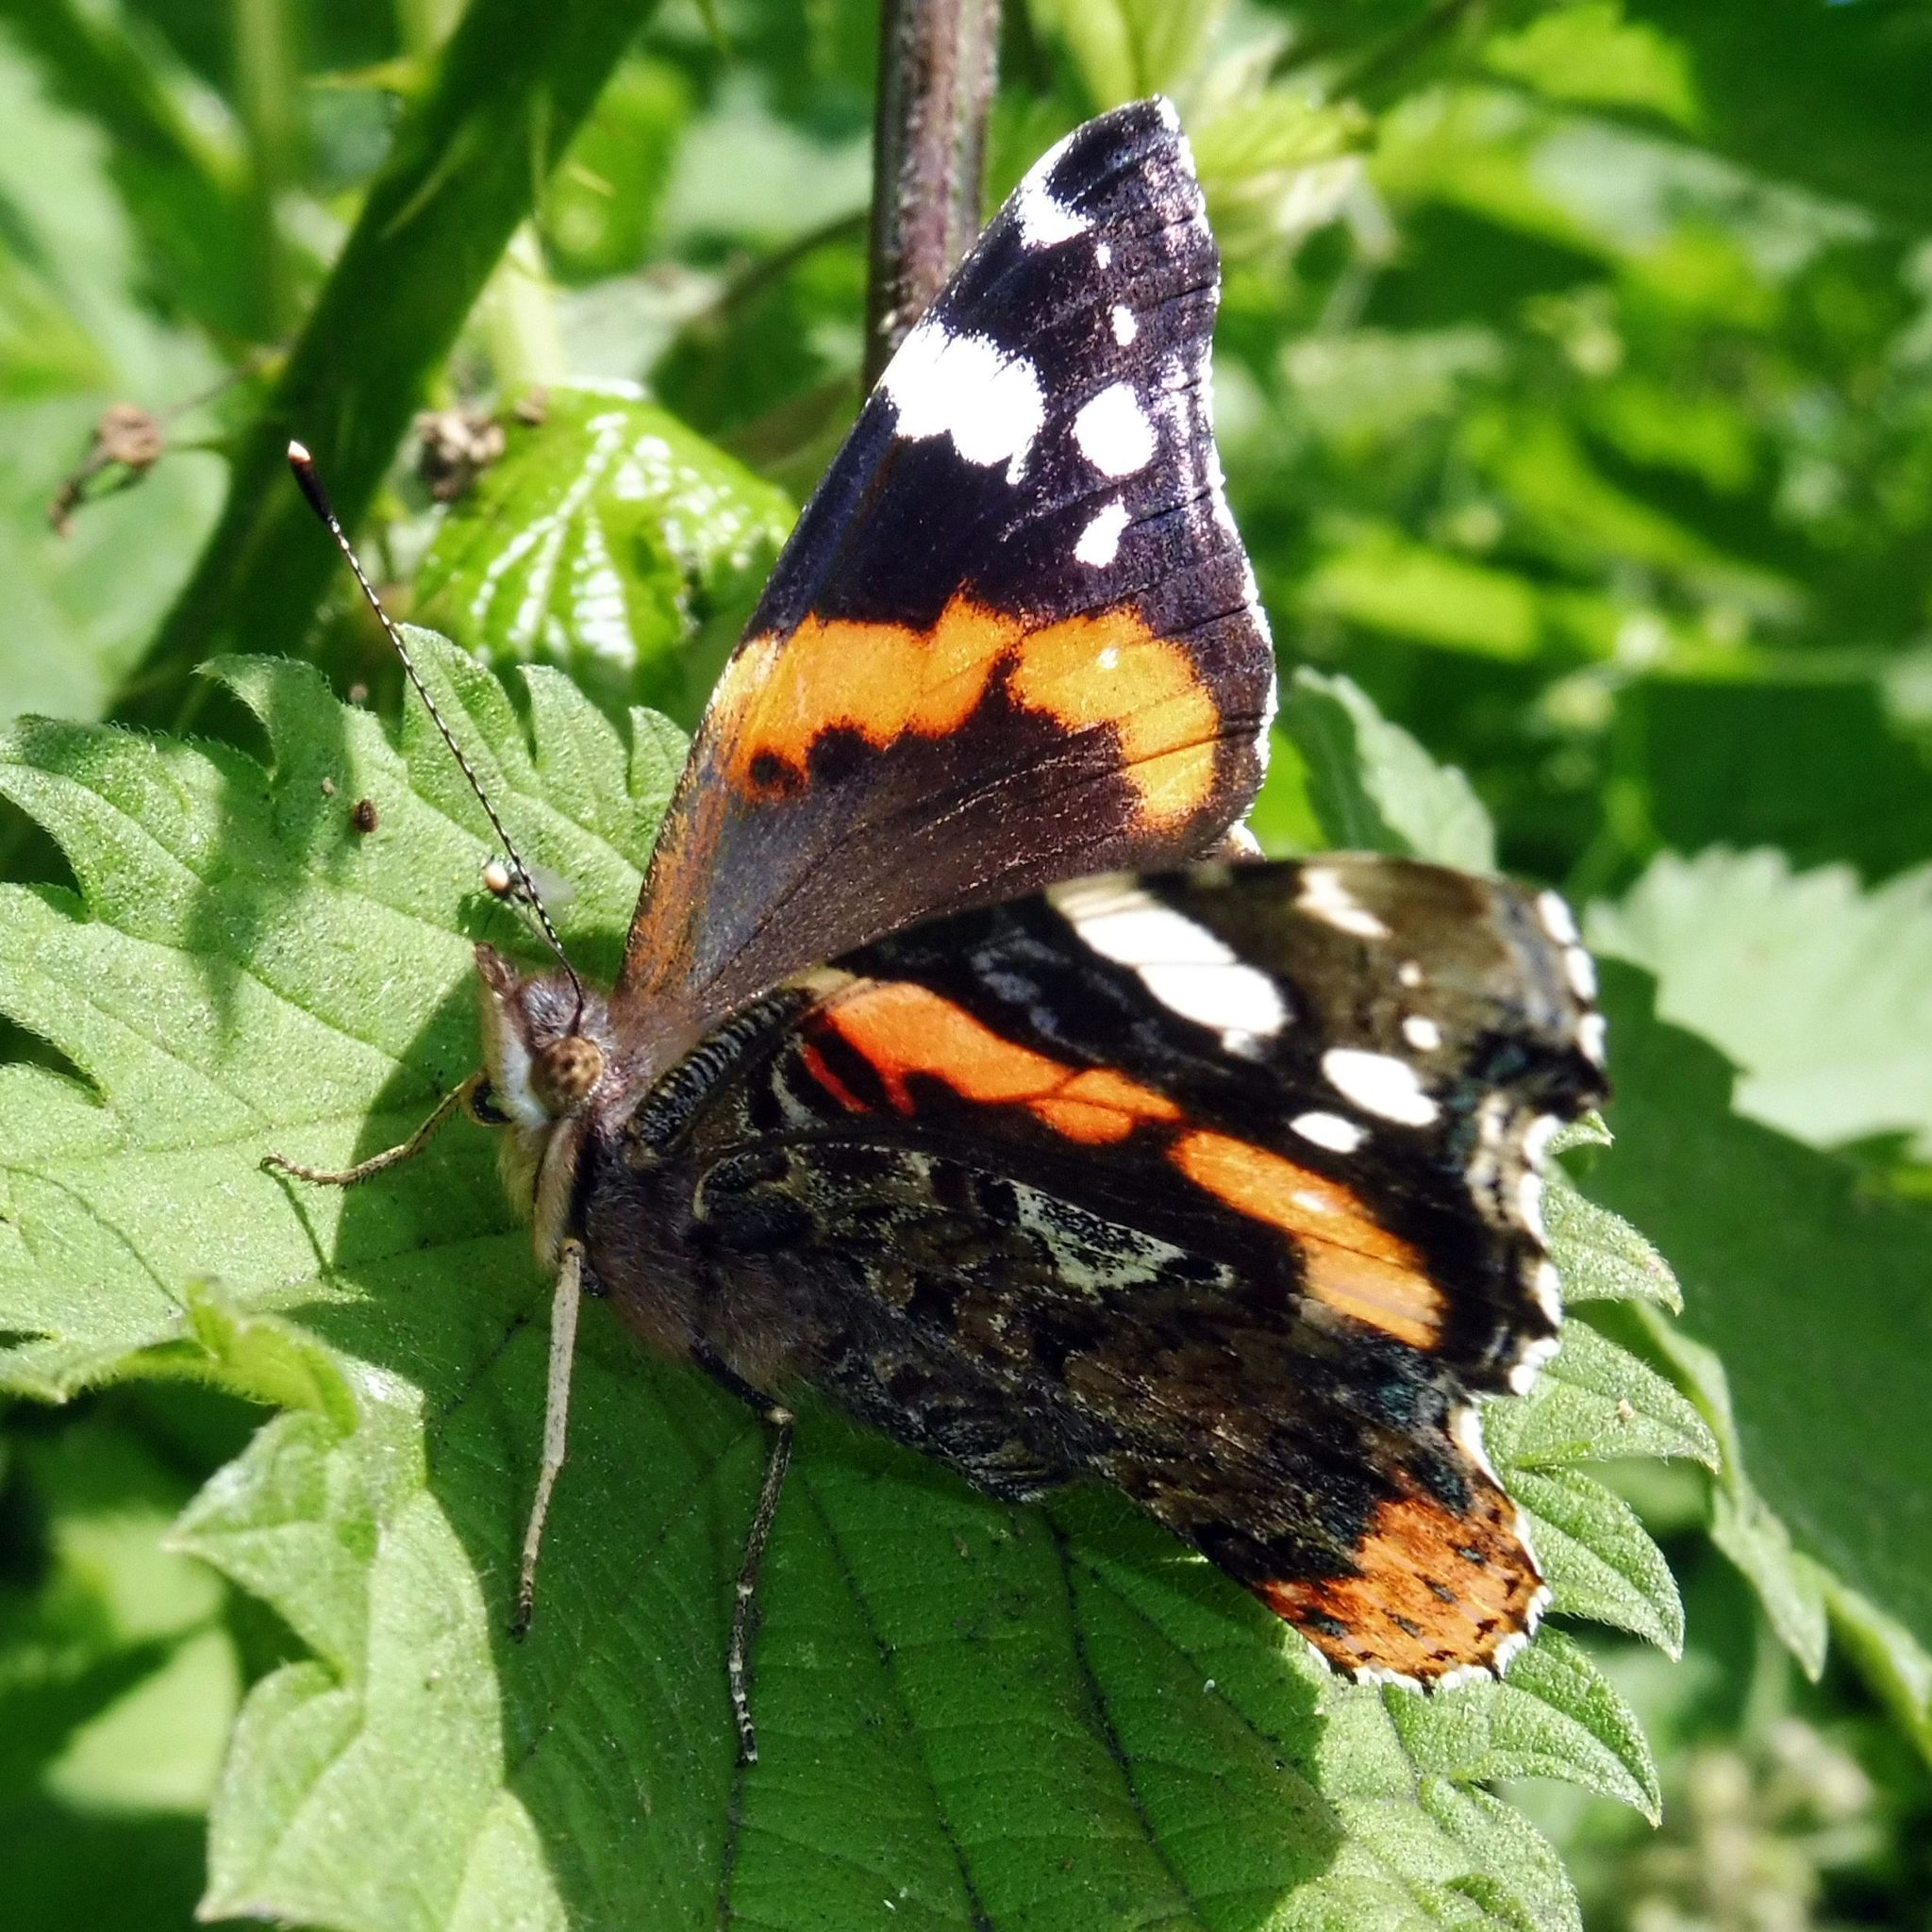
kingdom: Animalia
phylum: Arthropoda
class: Insecta
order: Lepidoptera
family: Nymphalidae
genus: Vanessa
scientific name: Vanessa atalanta
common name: Red admiral
